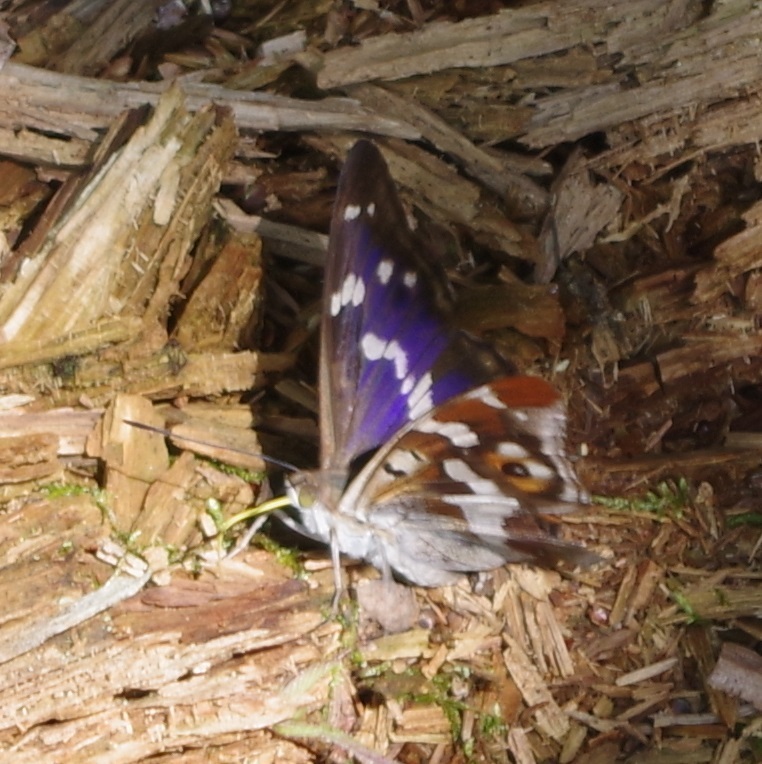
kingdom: Animalia
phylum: Arthropoda
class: Insecta
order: Lepidoptera
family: Nymphalidae
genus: Apatura
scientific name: Apatura iris
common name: Purple emperor
